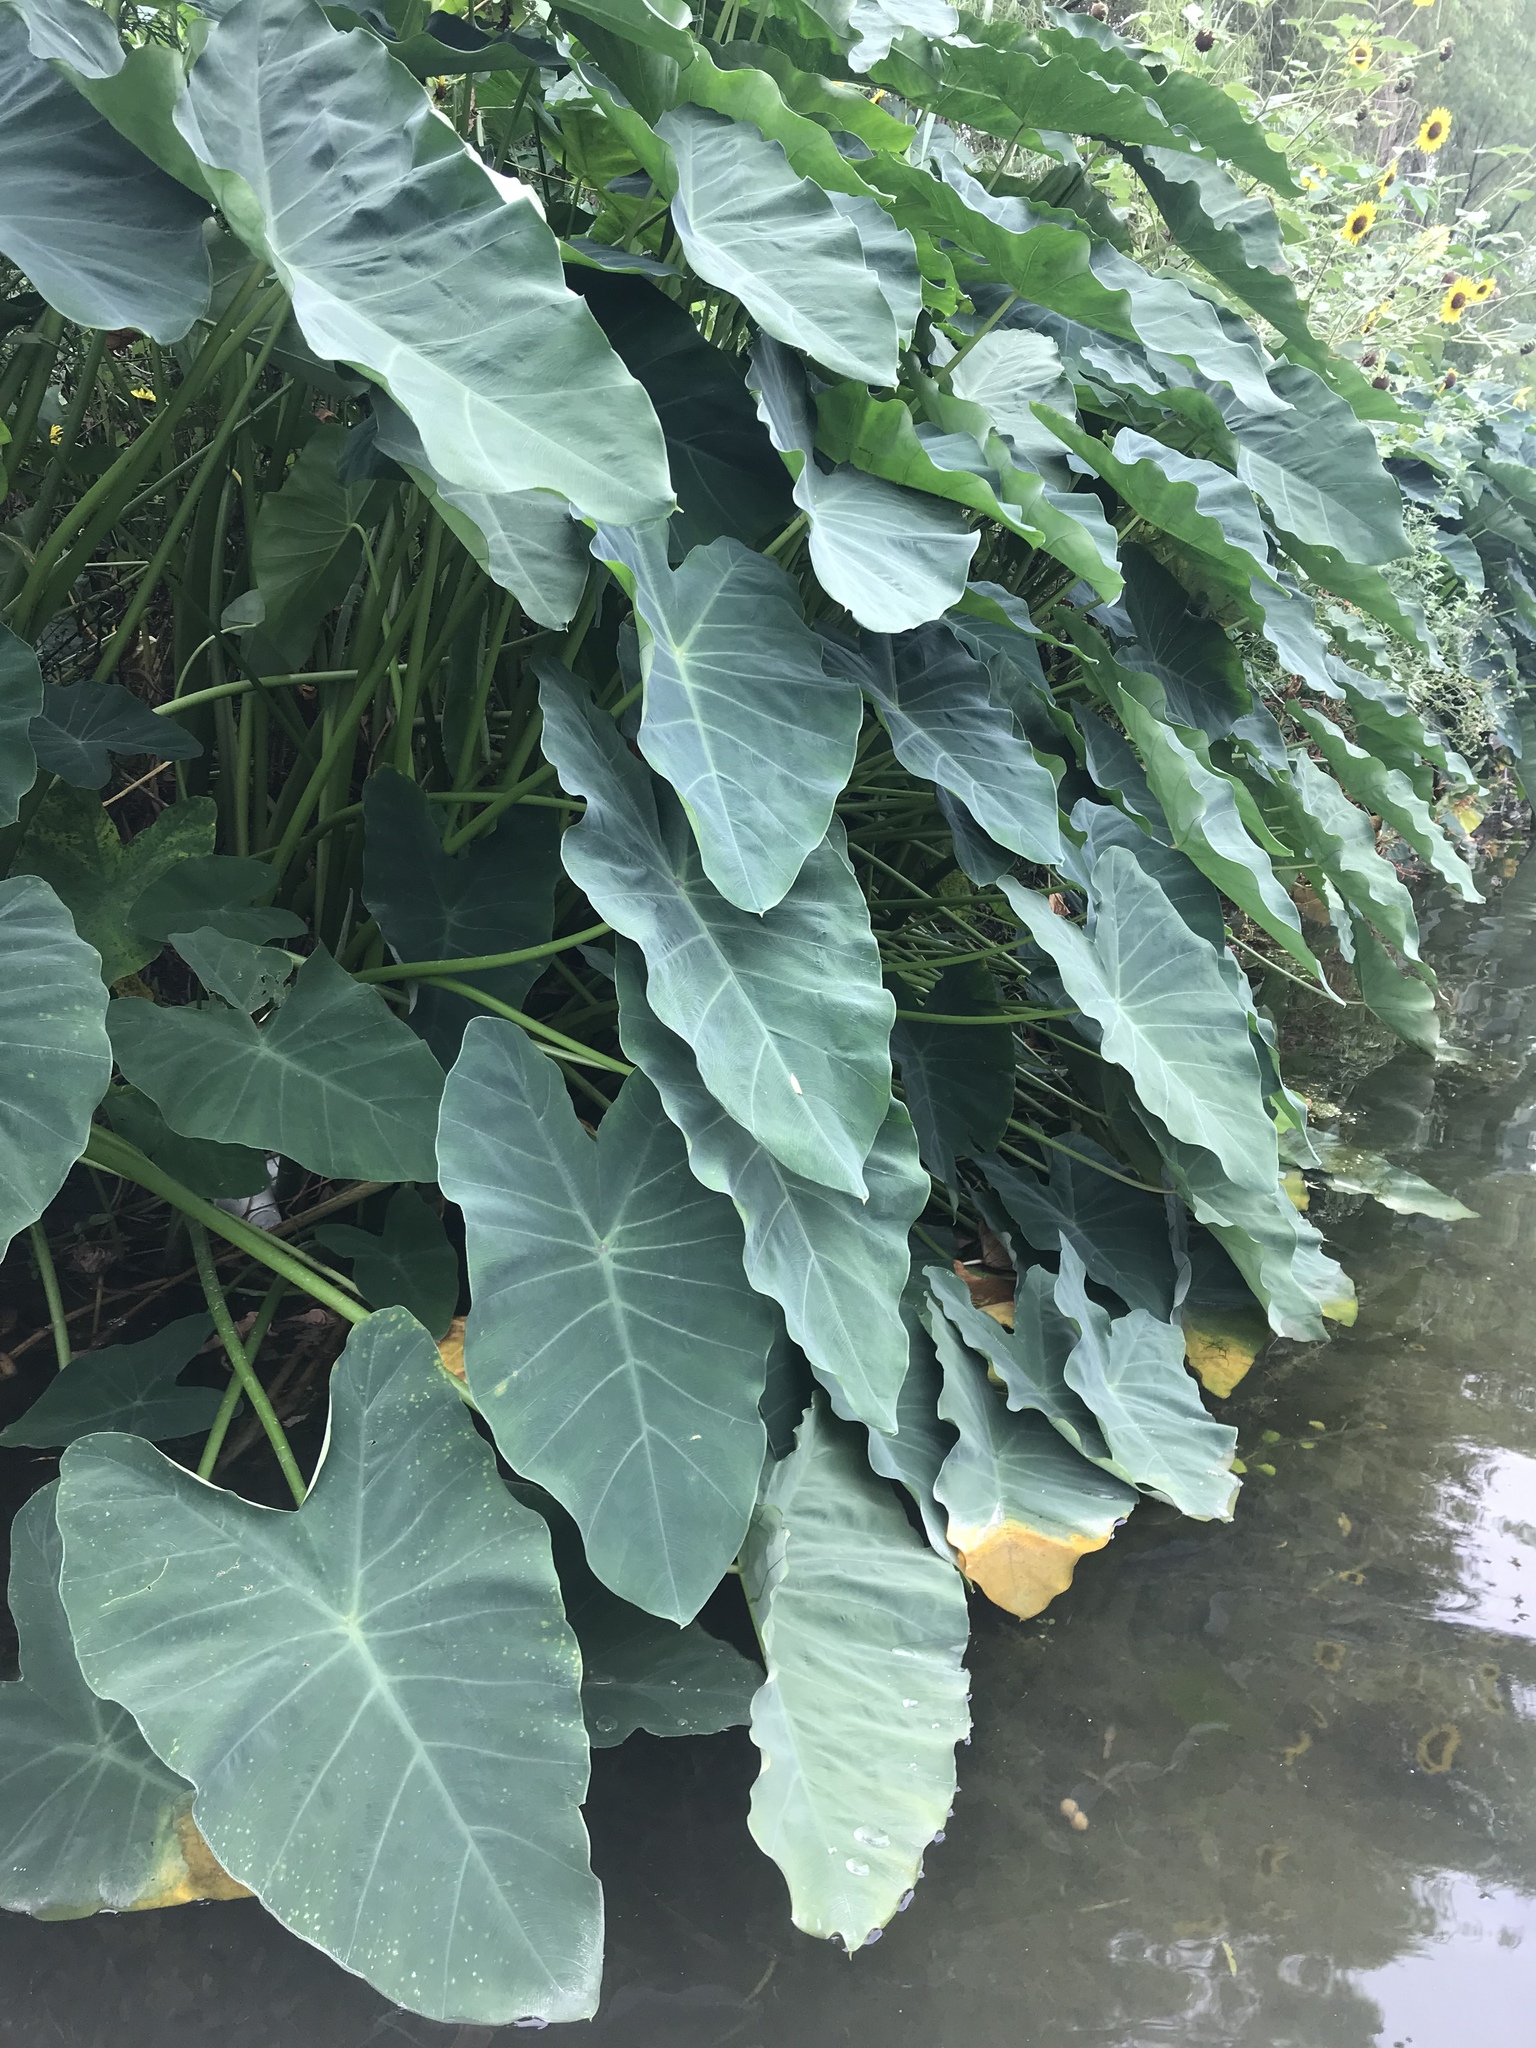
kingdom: Plantae
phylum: Tracheophyta
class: Liliopsida
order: Alismatales
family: Araceae
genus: Colocasia
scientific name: Colocasia esculenta
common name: Taro
